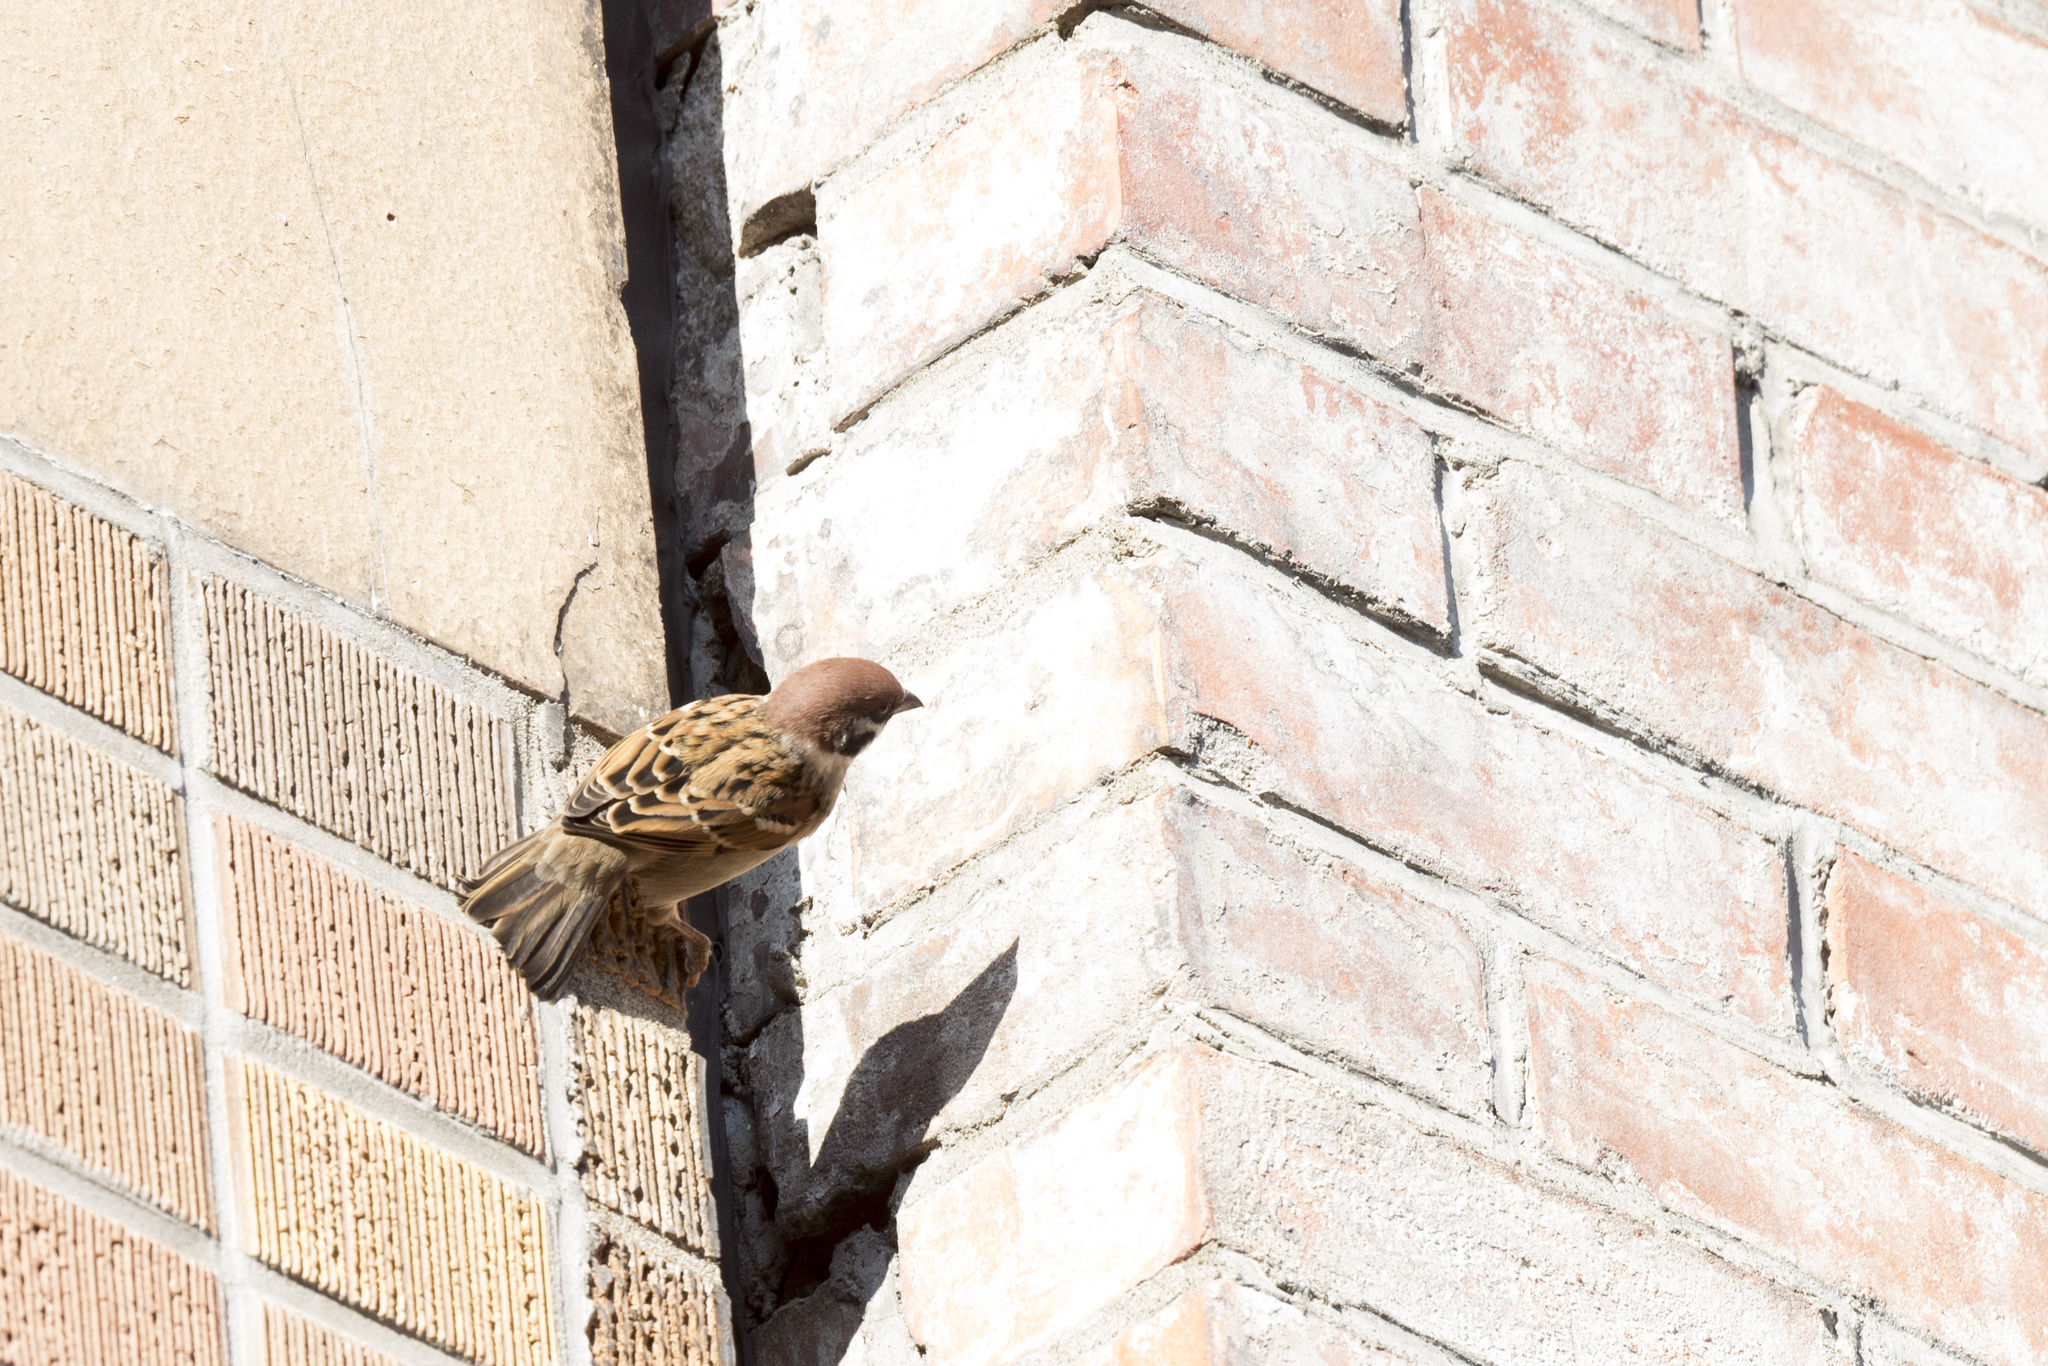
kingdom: Animalia
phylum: Chordata
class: Aves
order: Passeriformes
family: Passeridae
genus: Passer
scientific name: Passer montanus
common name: Eurasian tree sparrow
